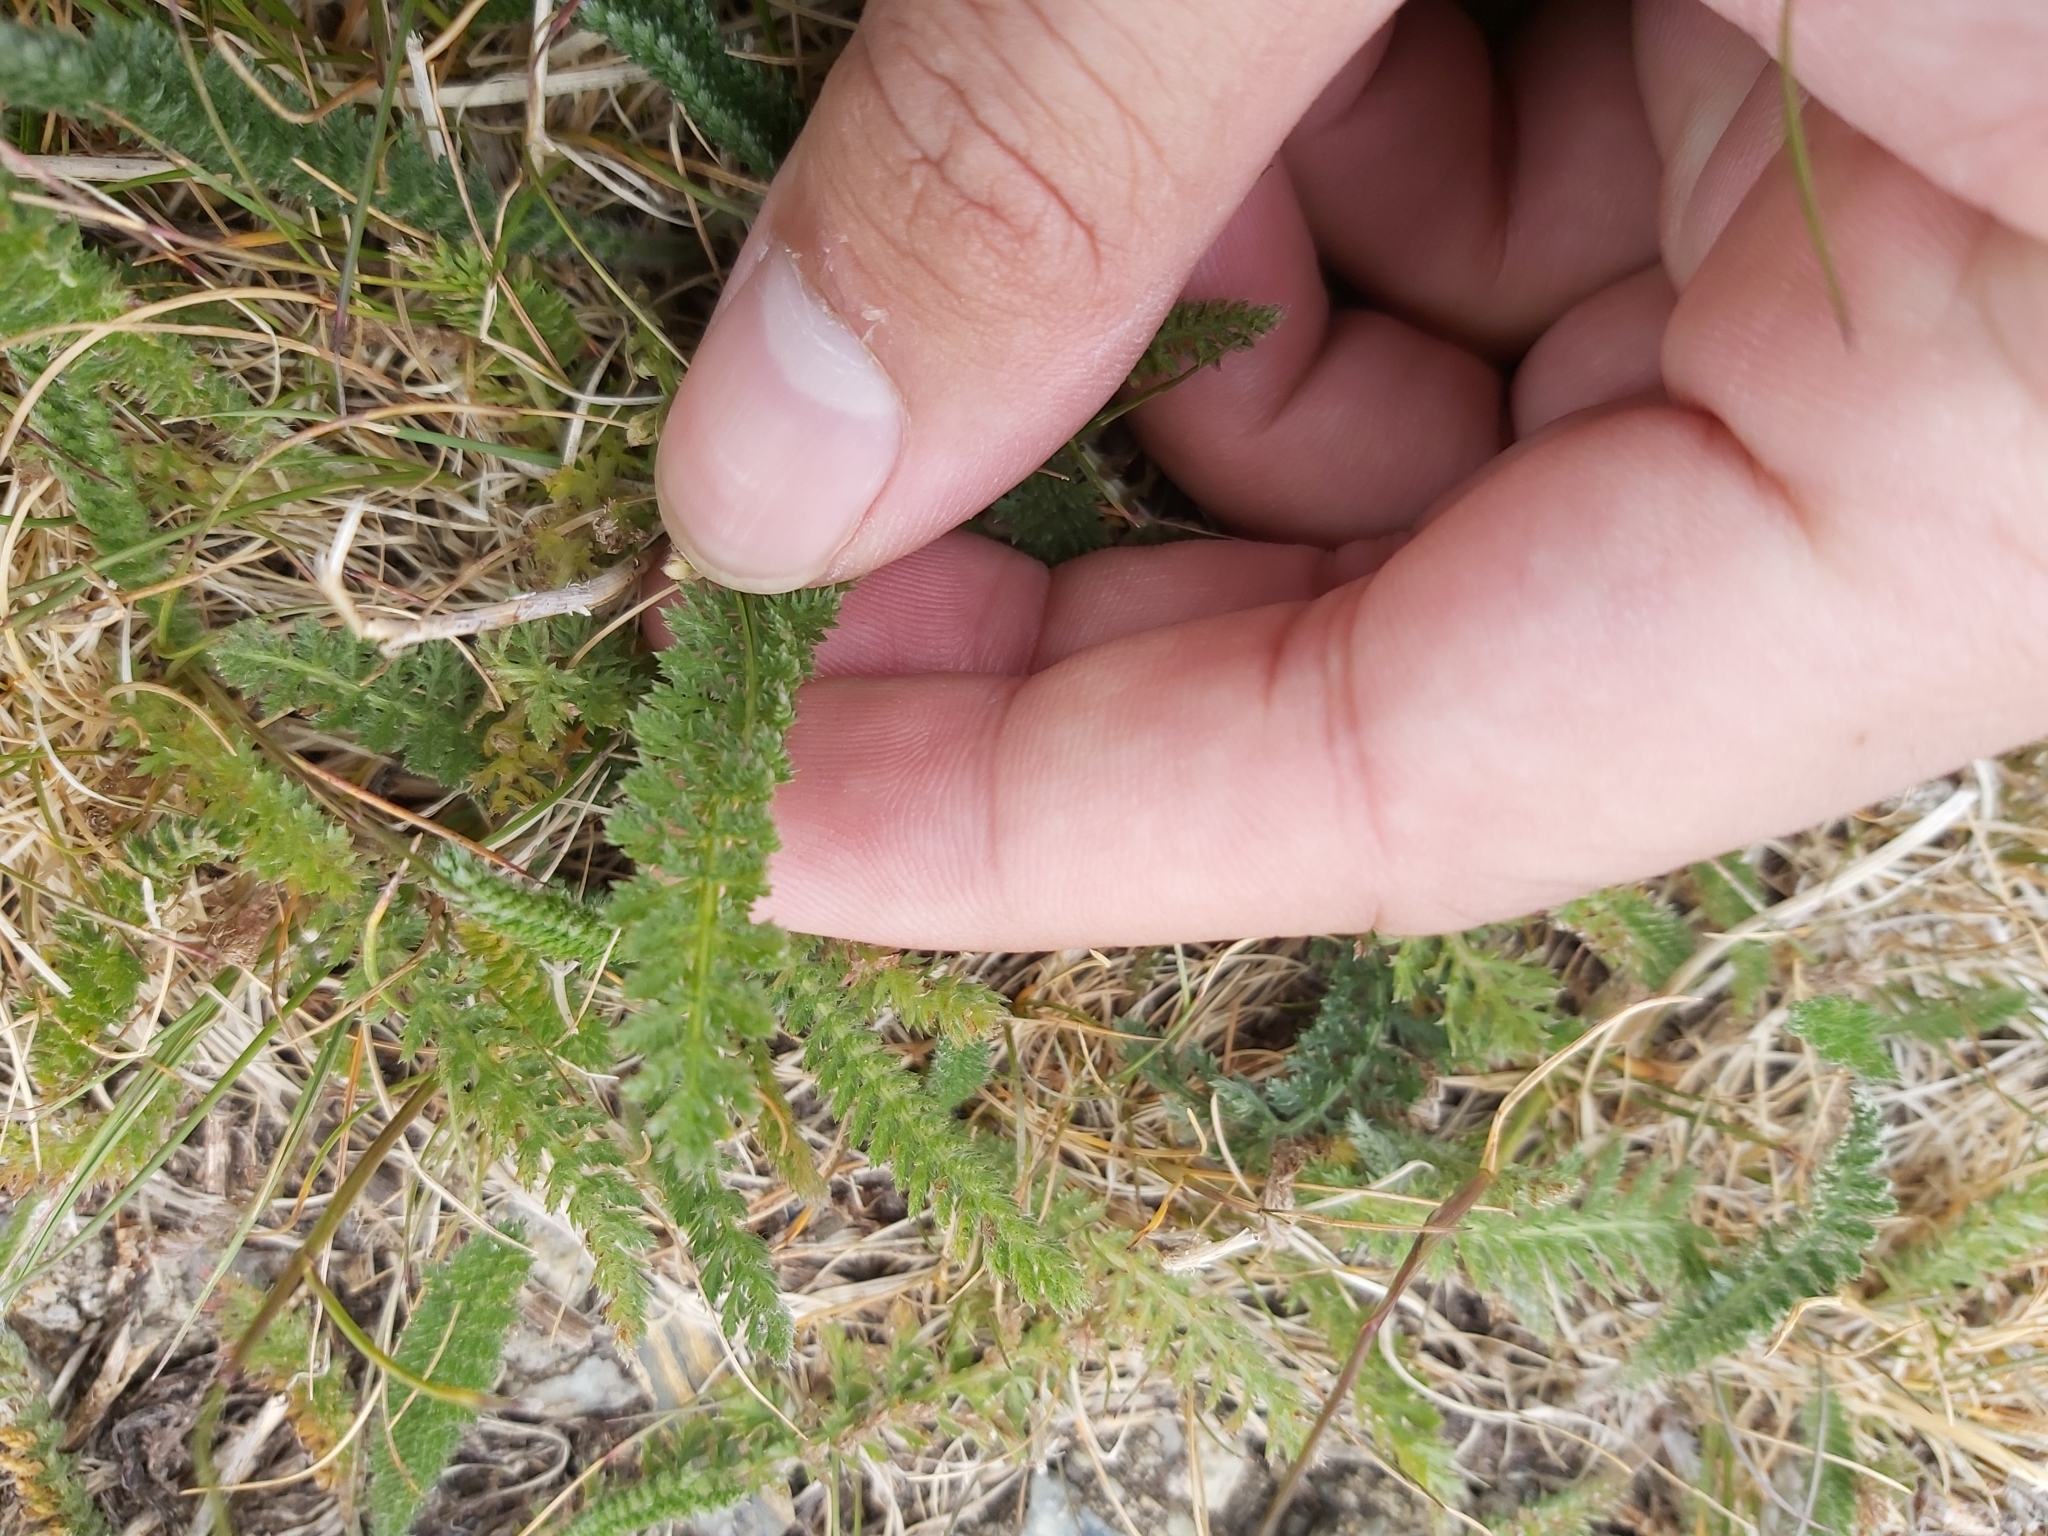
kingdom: Plantae
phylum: Tracheophyta
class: Magnoliopsida
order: Asterales
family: Asteraceae
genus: Achillea
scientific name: Achillea millefolium
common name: Yarrow
